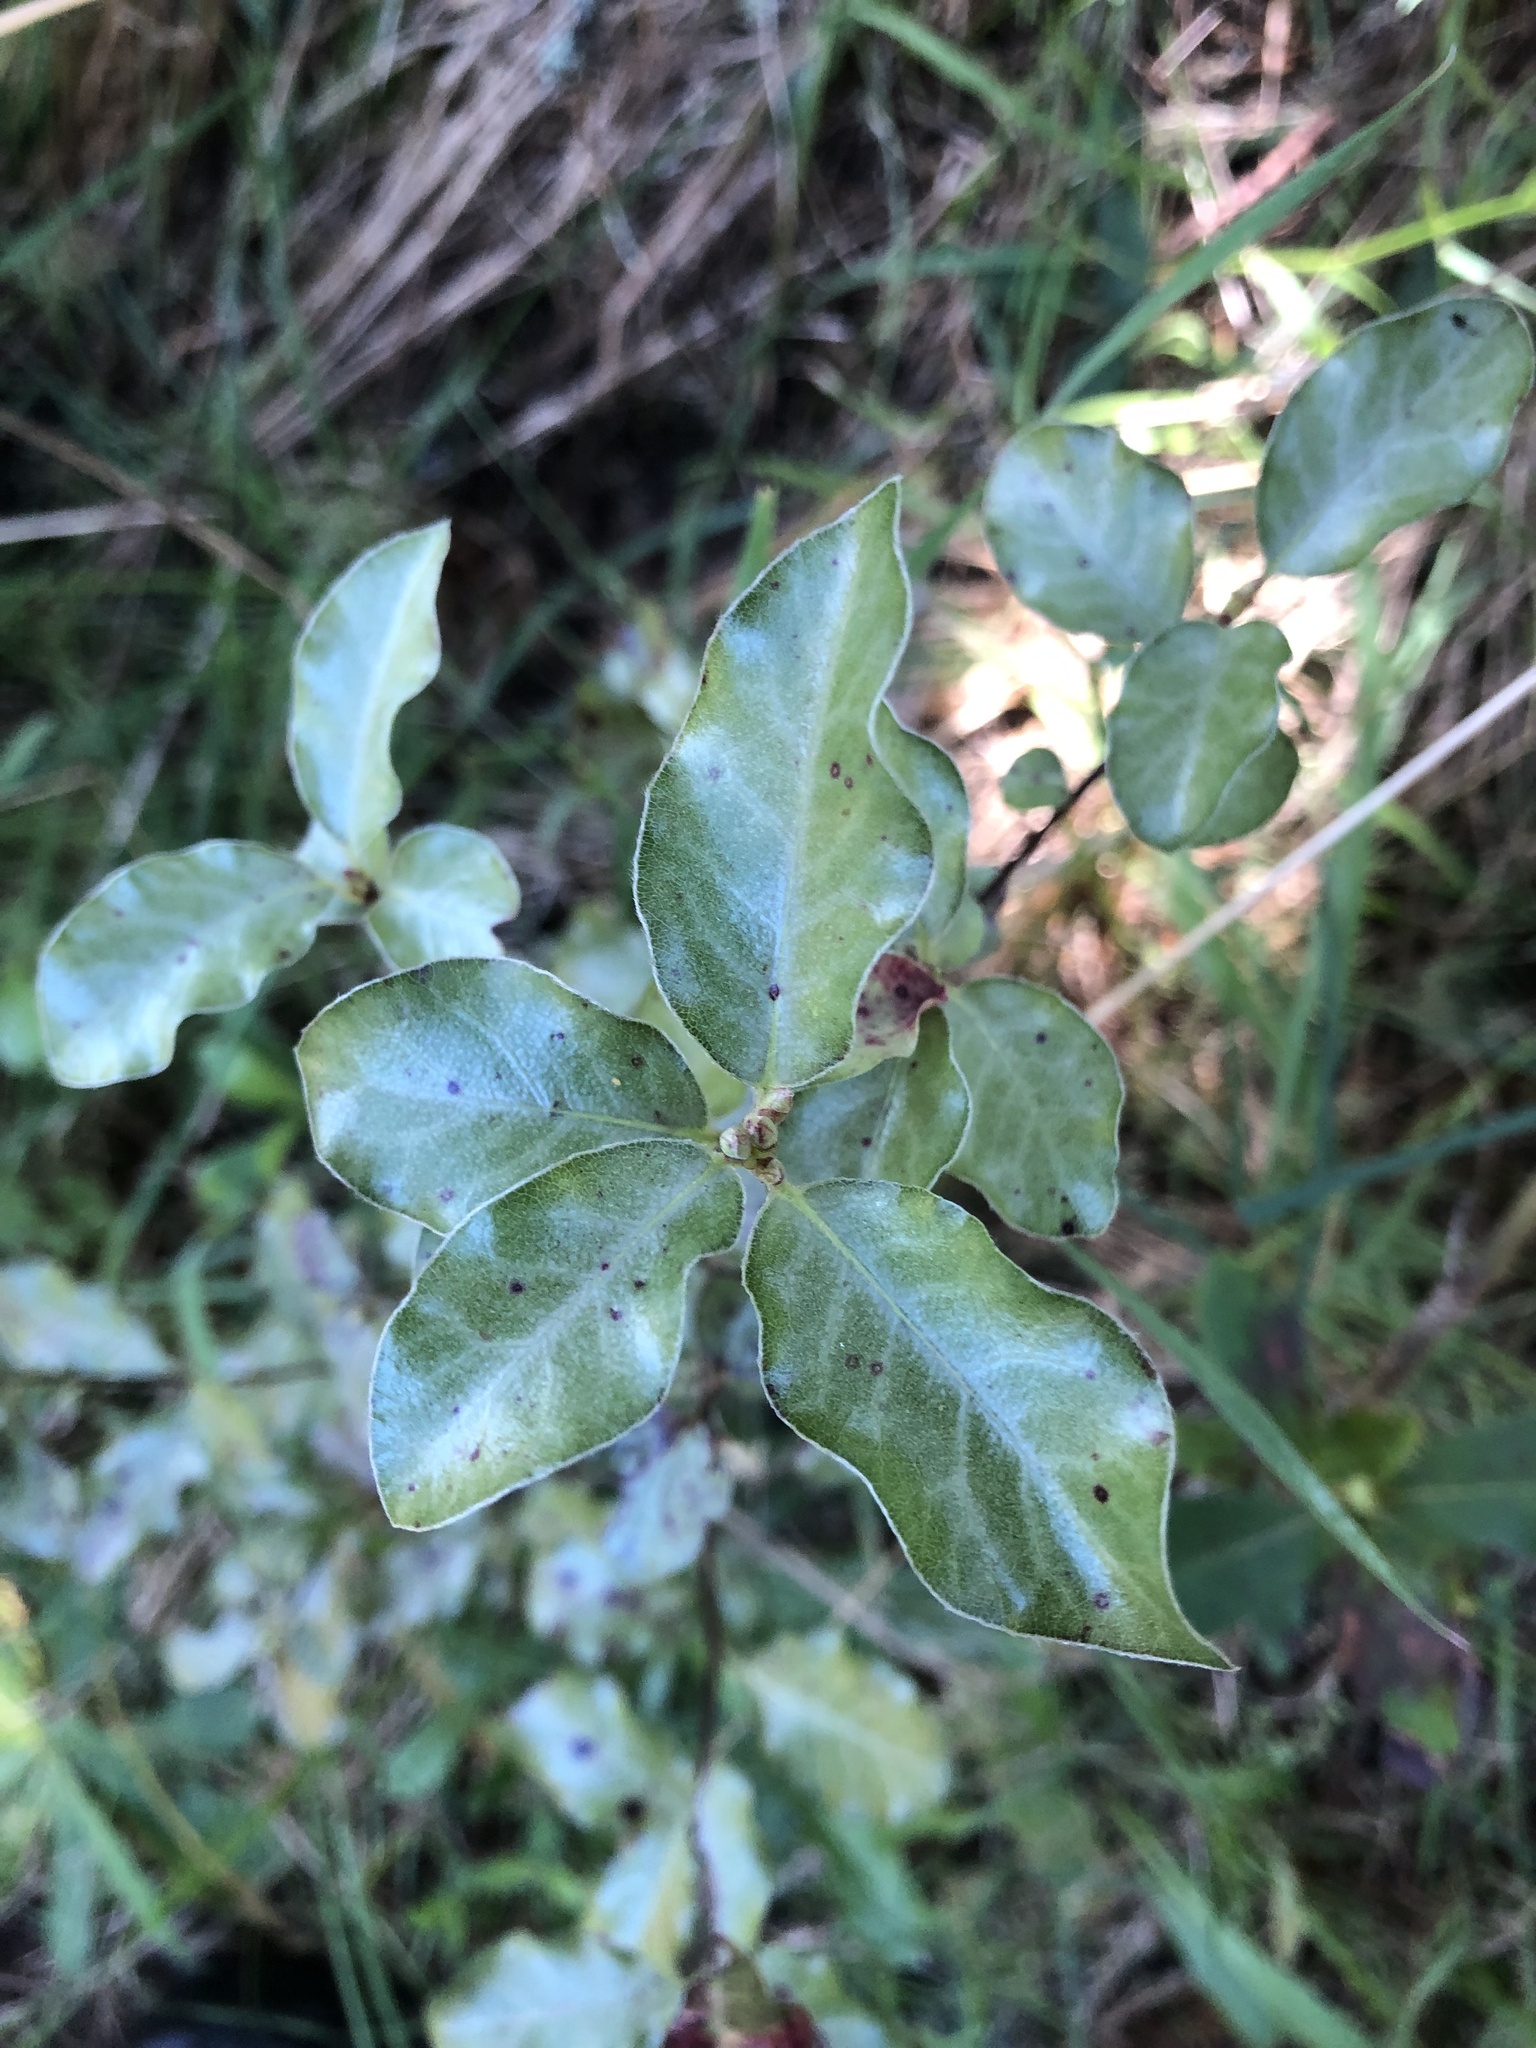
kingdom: Plantae
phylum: Tracheophyta
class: Magnoliopsida
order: Apiales
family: Pittosporaceae
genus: Pittosporum
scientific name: Pittosporum tenuifolium
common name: Kohuhu
